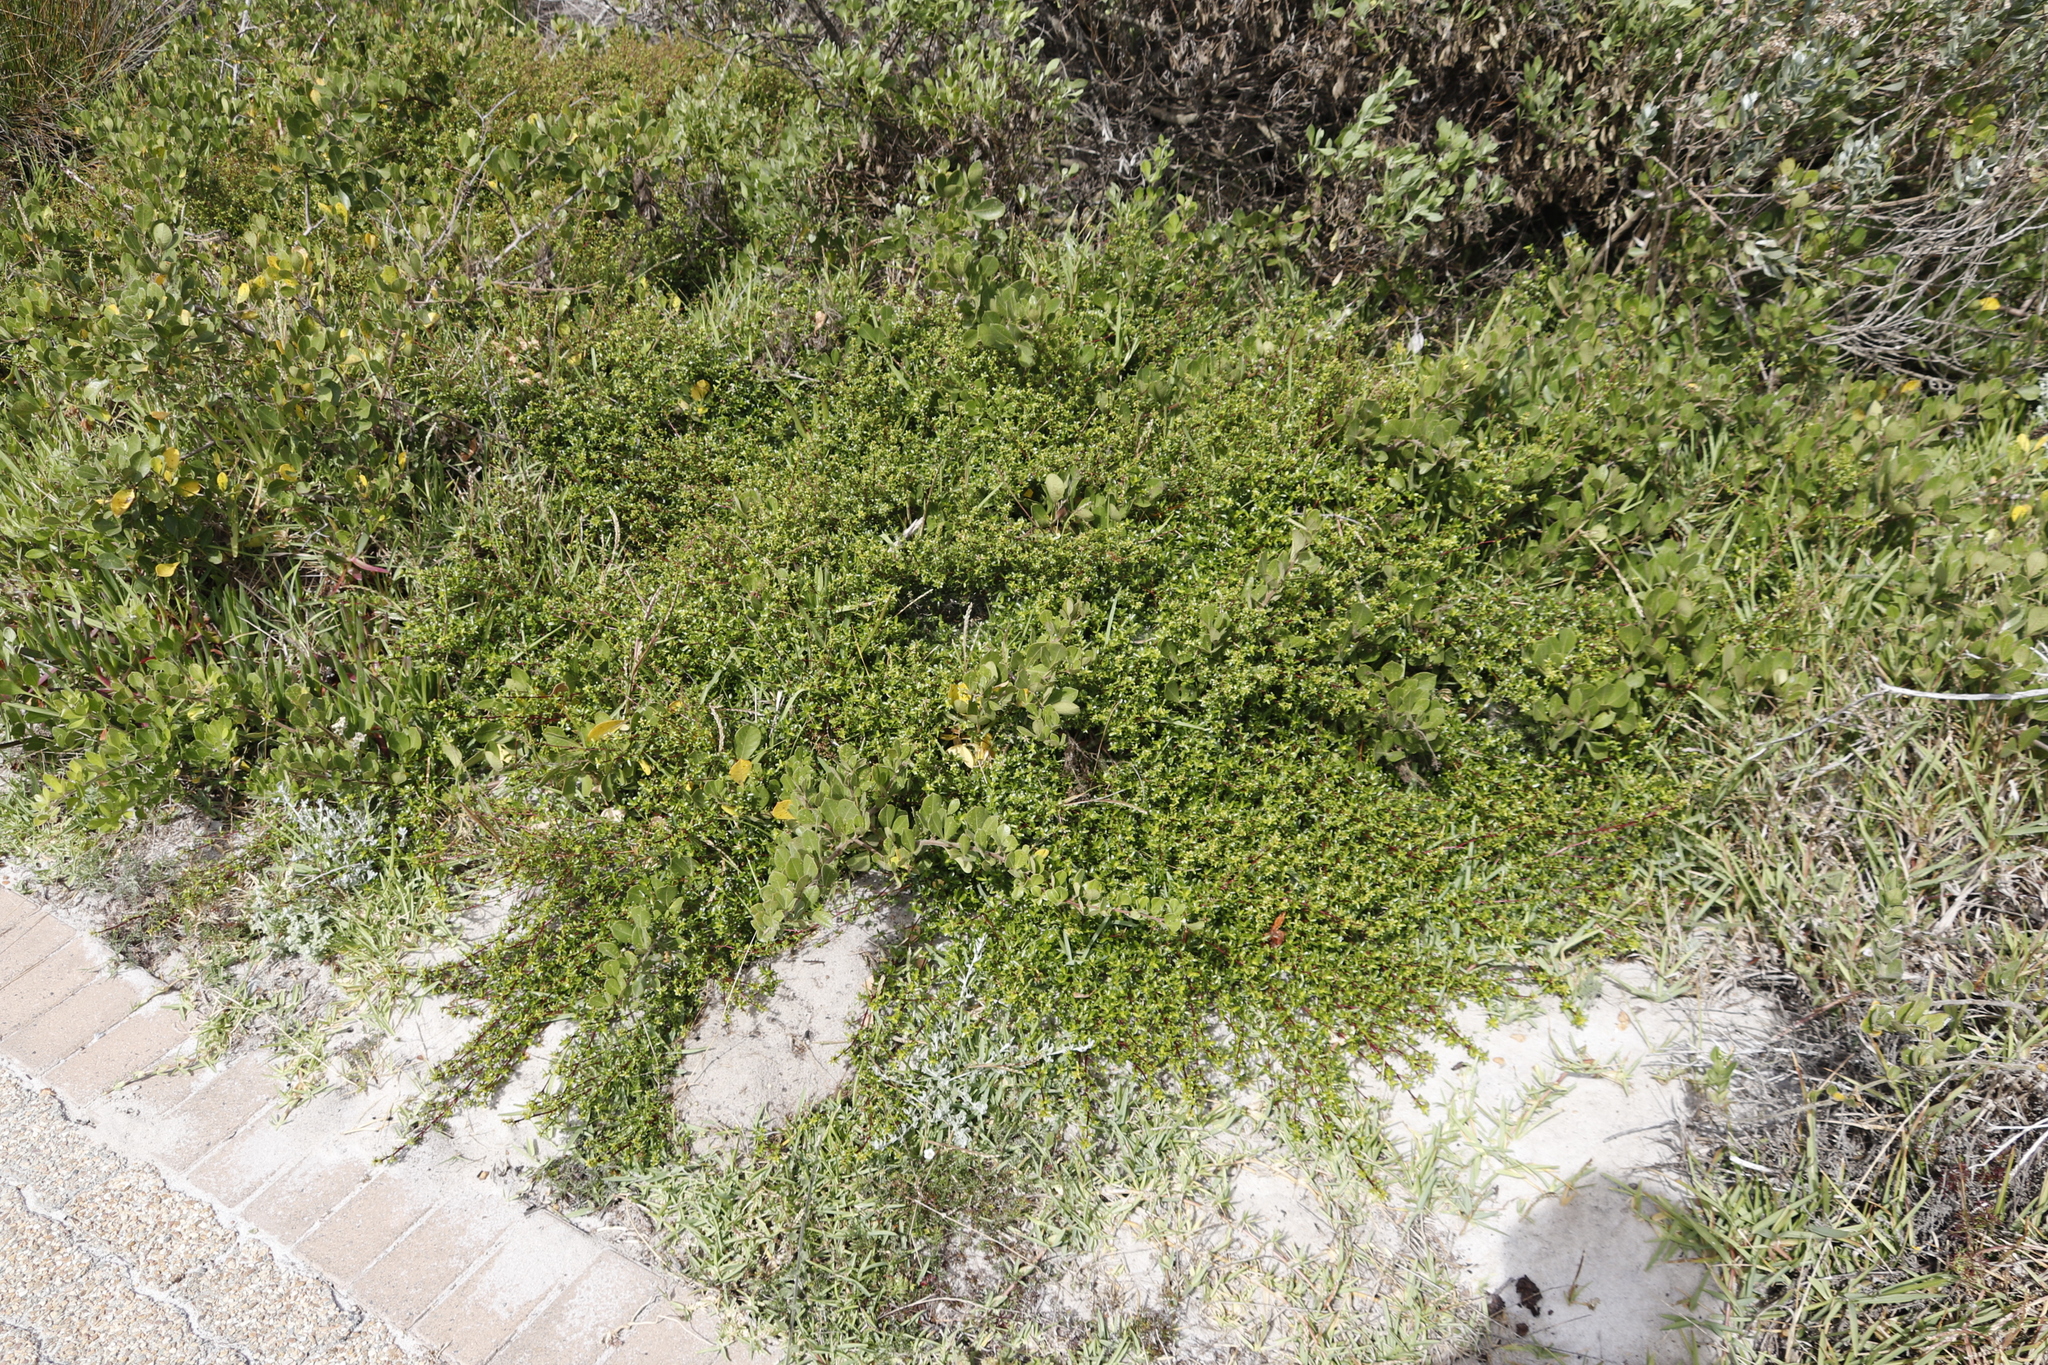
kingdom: Plantae
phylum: Tracheophyta
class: Magnoliopsida
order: Rosales
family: Rosaceae
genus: Cliffortia
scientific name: Cliffortia ferruginea
